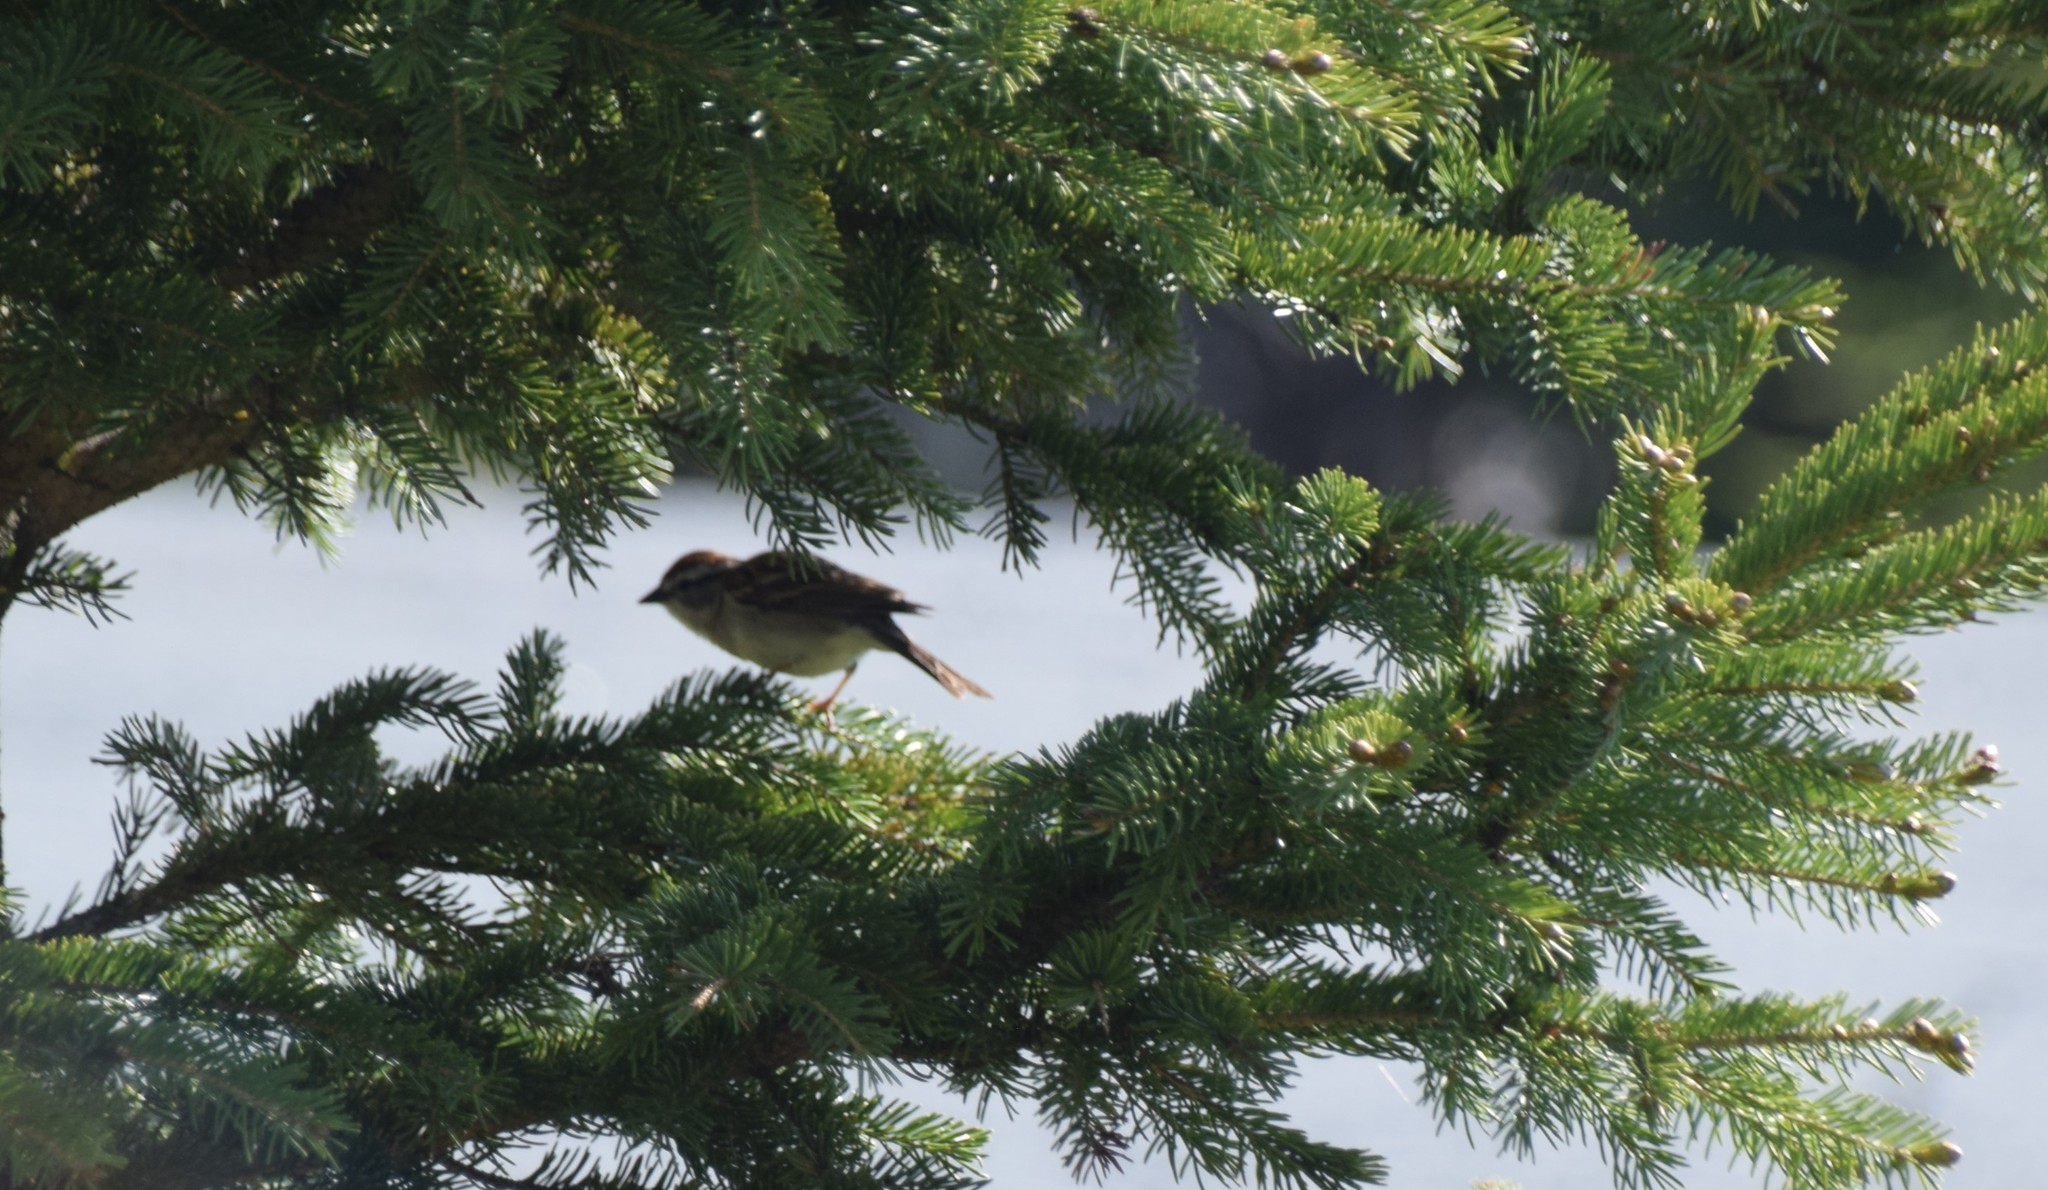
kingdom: Animalia
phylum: Chordata
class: Aves
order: Passeriformes
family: Passerellidae
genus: Spizella
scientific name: Spizella passerina
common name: Chipping sparrow
